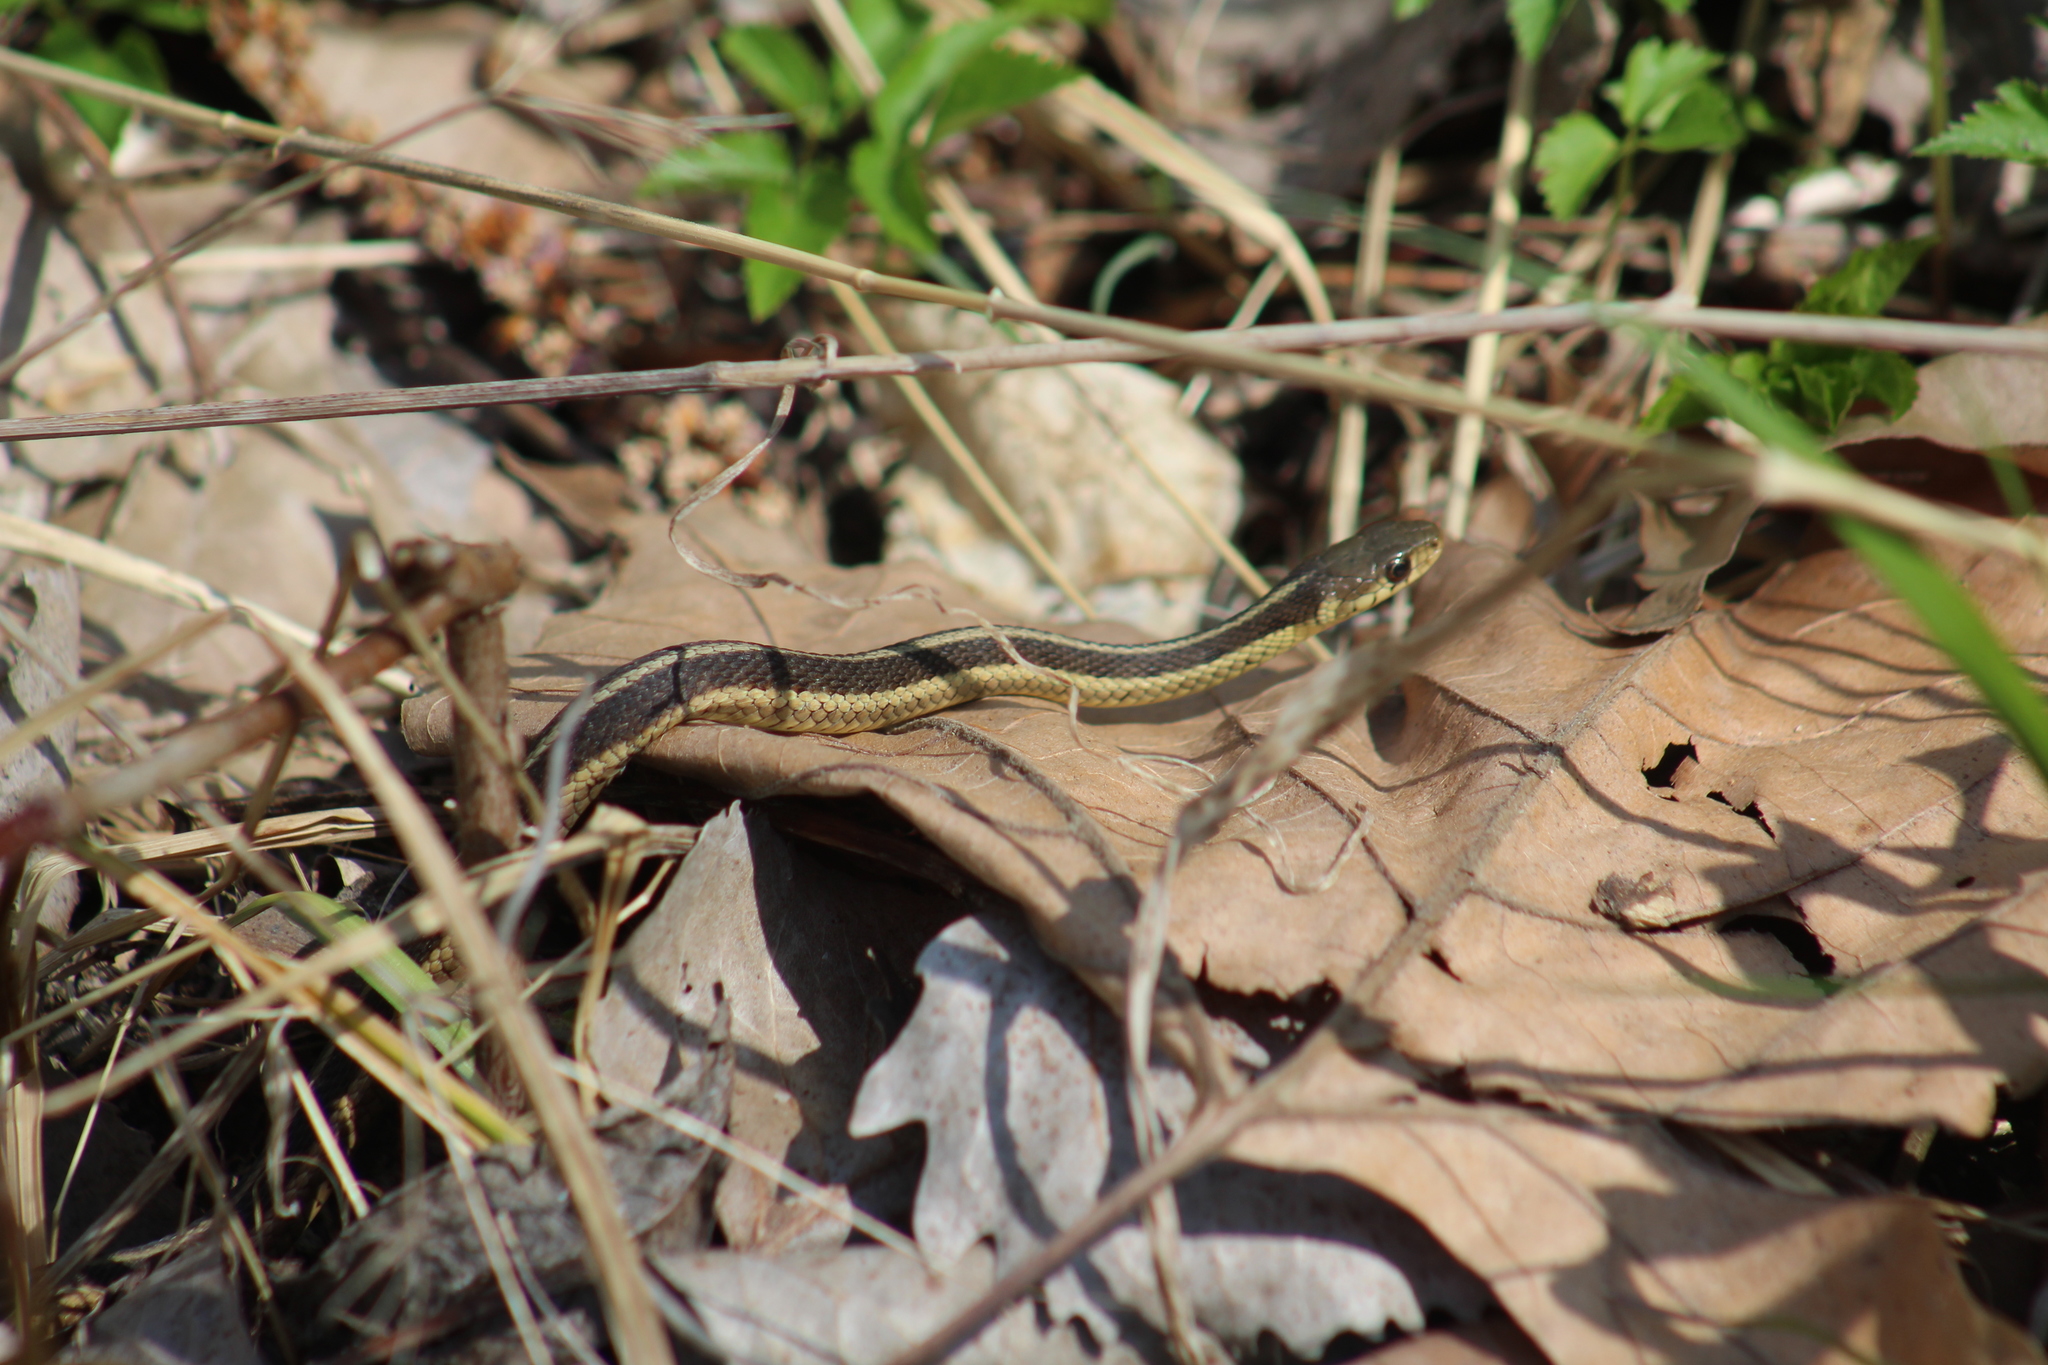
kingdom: Animalia
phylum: Chordata
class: Squamata
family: Colubridae
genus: Thamnophis
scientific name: Thamnophis sirtalis
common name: Common garter snake
